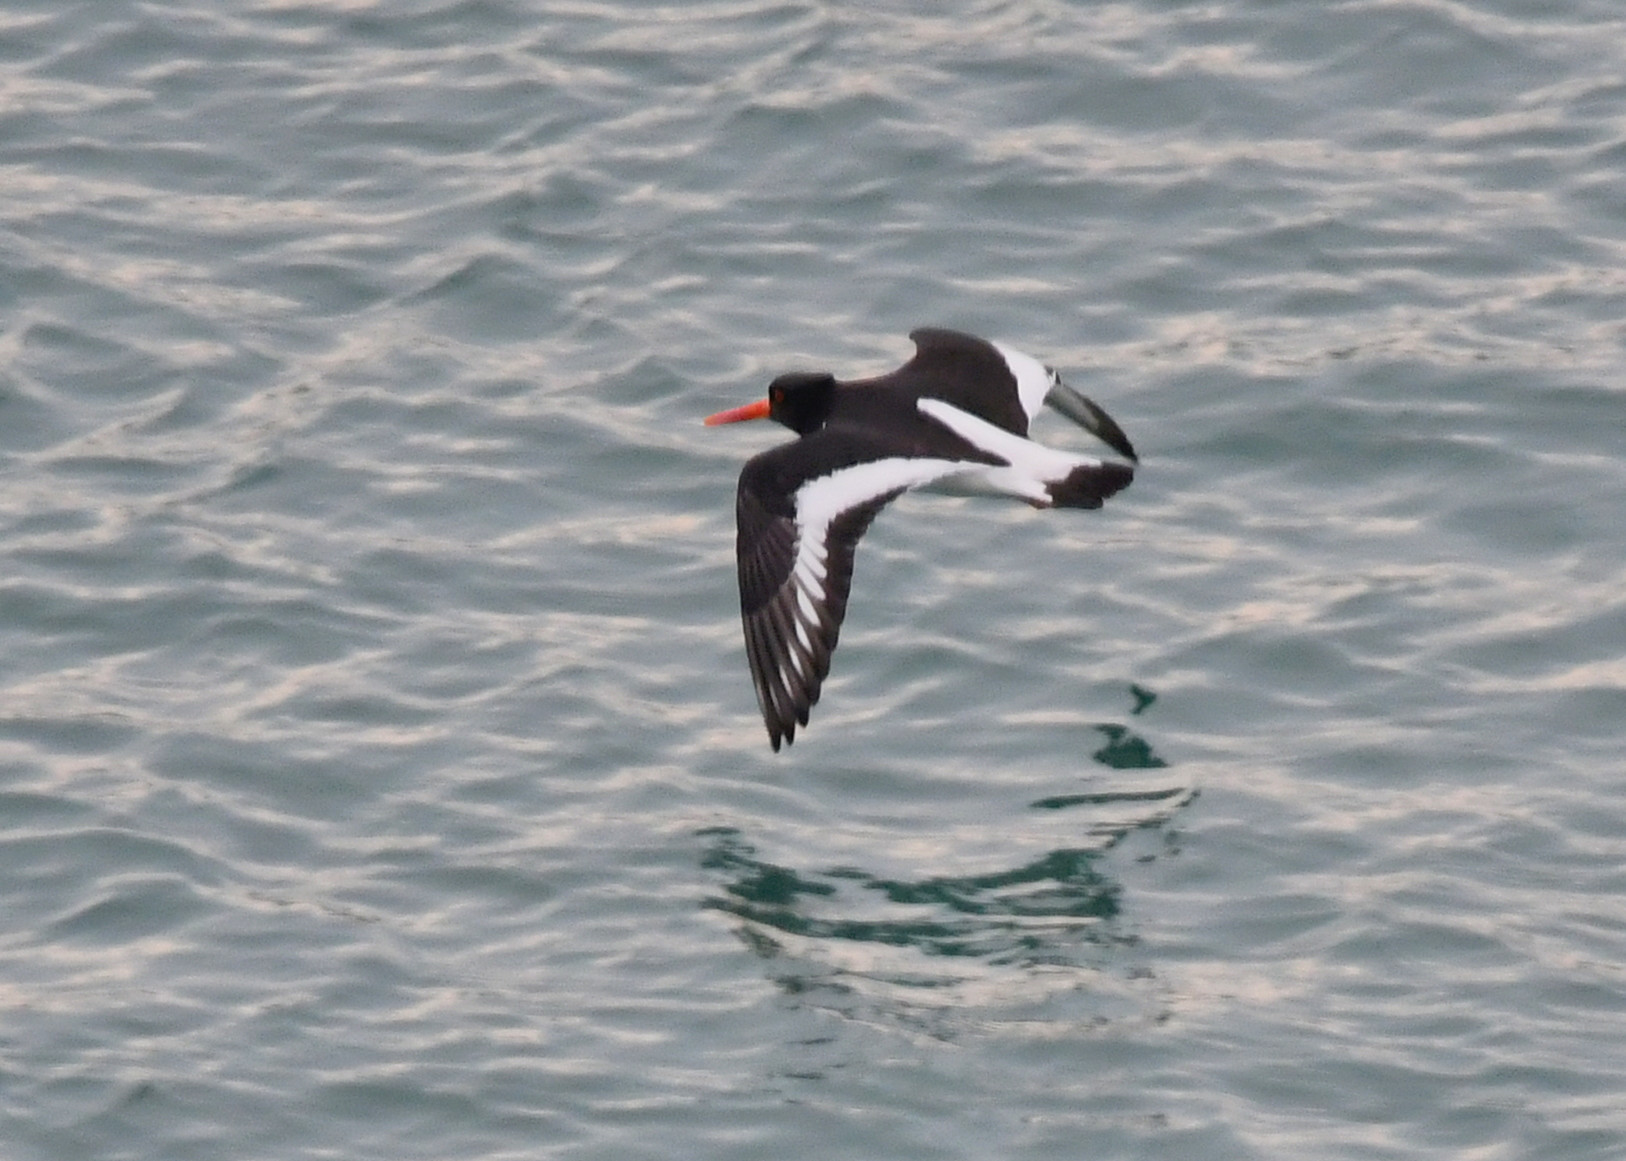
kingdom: Animalia
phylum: Chordata
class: Aves
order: Charadriiformes
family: Haematopodidae
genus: Haematopus
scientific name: Haematopus ostralegus
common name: Eurasian oystercatcher
